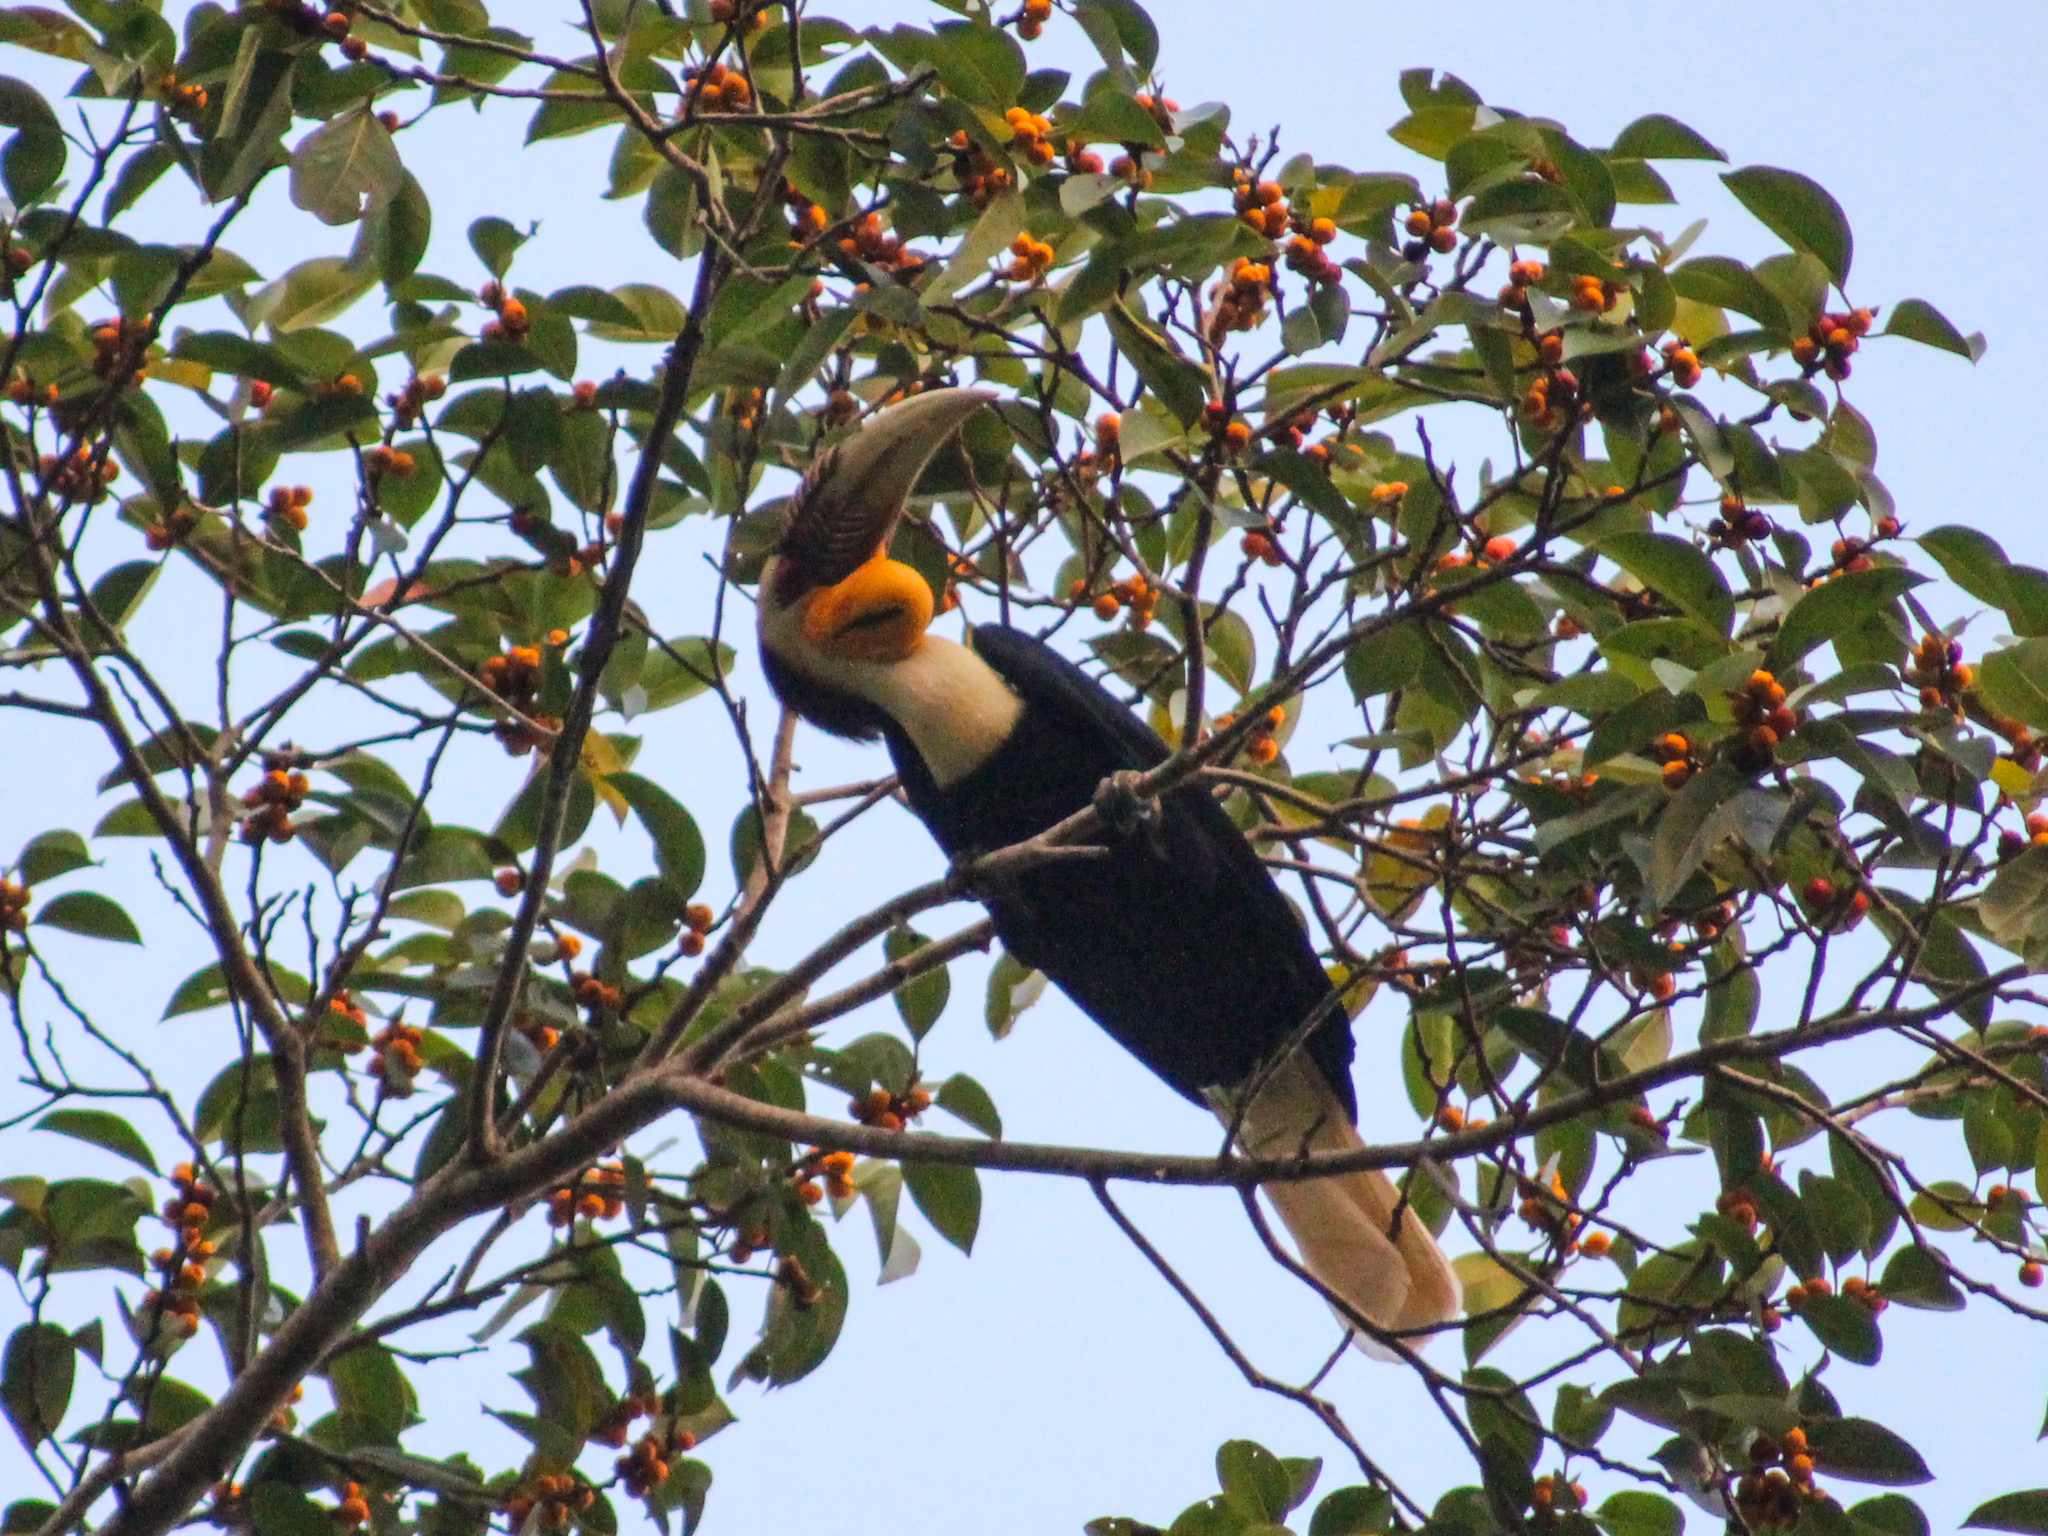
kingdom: Animalia
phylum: Chordata
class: Aves
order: Bucerotiformes
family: Bucerotidae
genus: Rhyticeros
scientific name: Rhyticeros undulatus
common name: Wreathed hornbill
